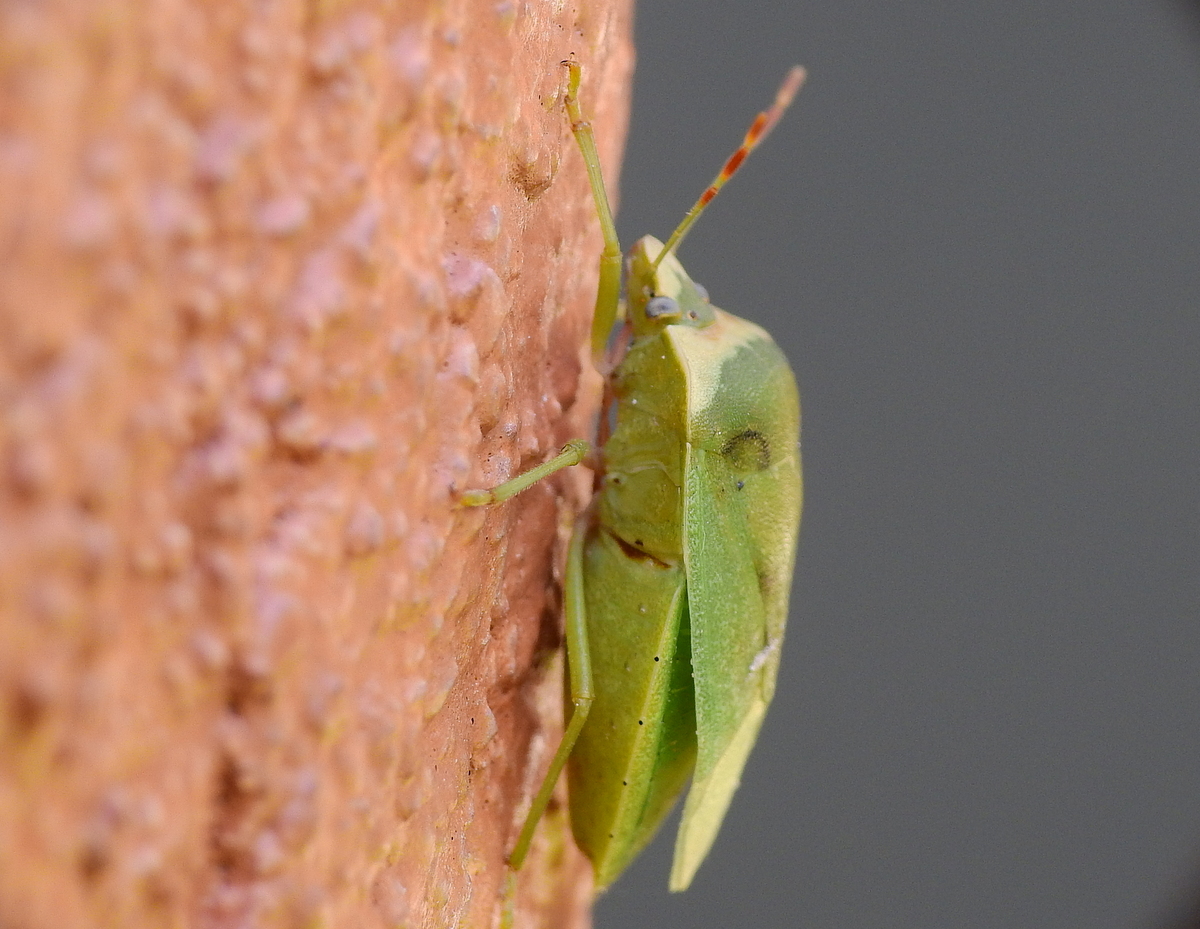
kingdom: Animalia
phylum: Arthropoda
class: Insecta
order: Hemiptera
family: Pentatomidae
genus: Nezara
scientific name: Nezara viridula
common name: Southern green stink bug
